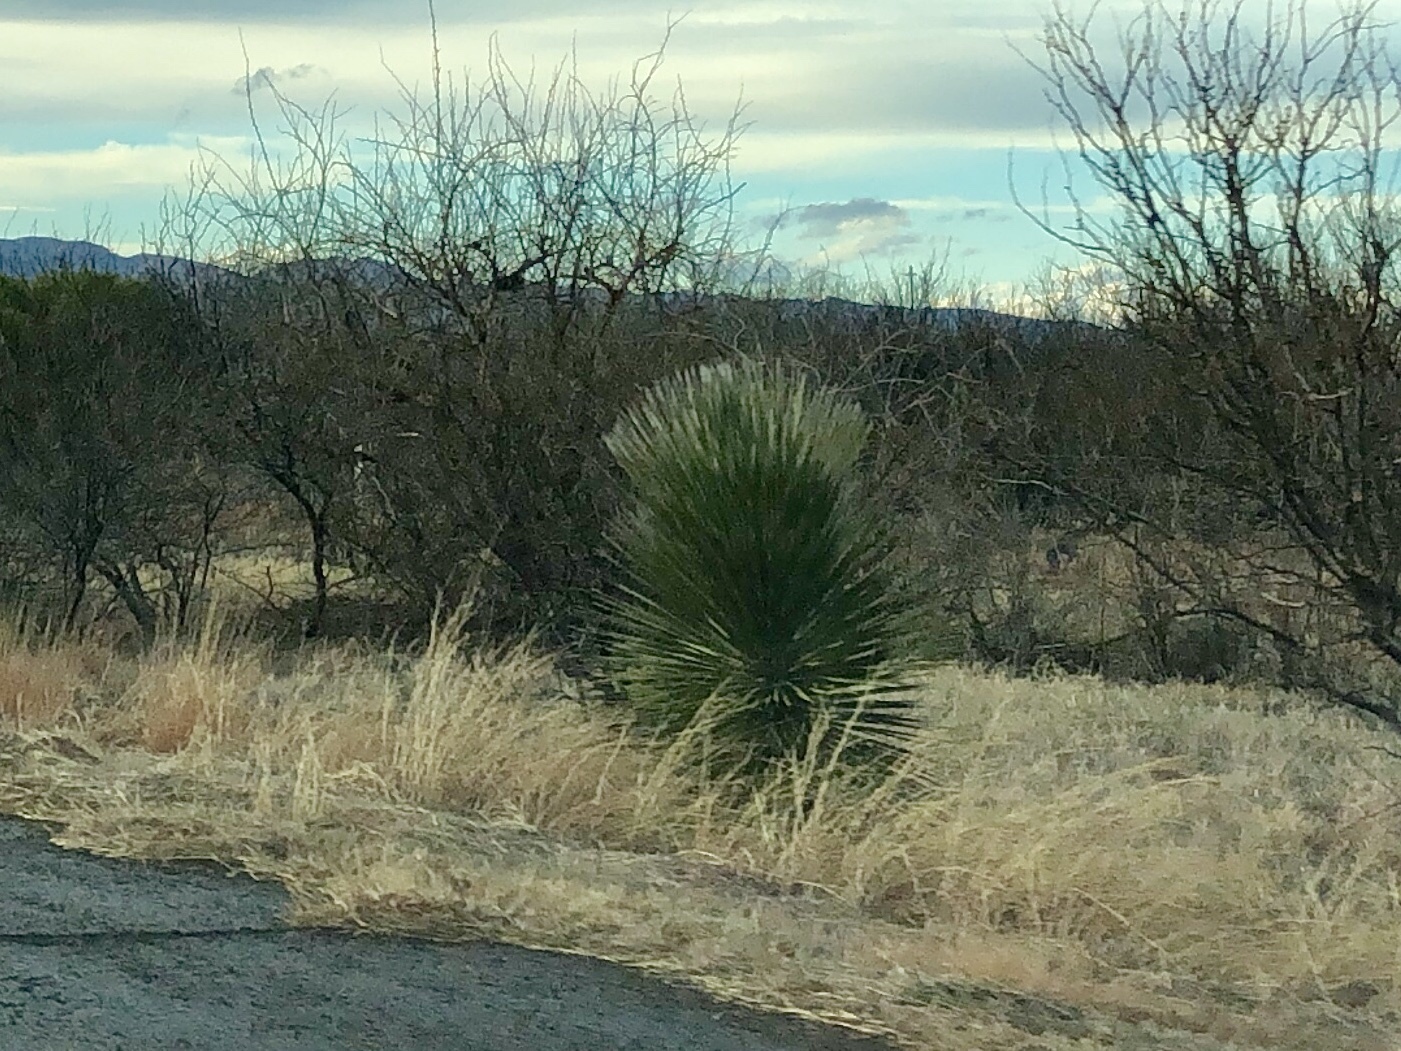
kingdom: Plantae
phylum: Tracheophyta
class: Liliopsida
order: Asparagales
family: Asparagaceae
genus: Yucca
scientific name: Yucca elata
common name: Palmella
